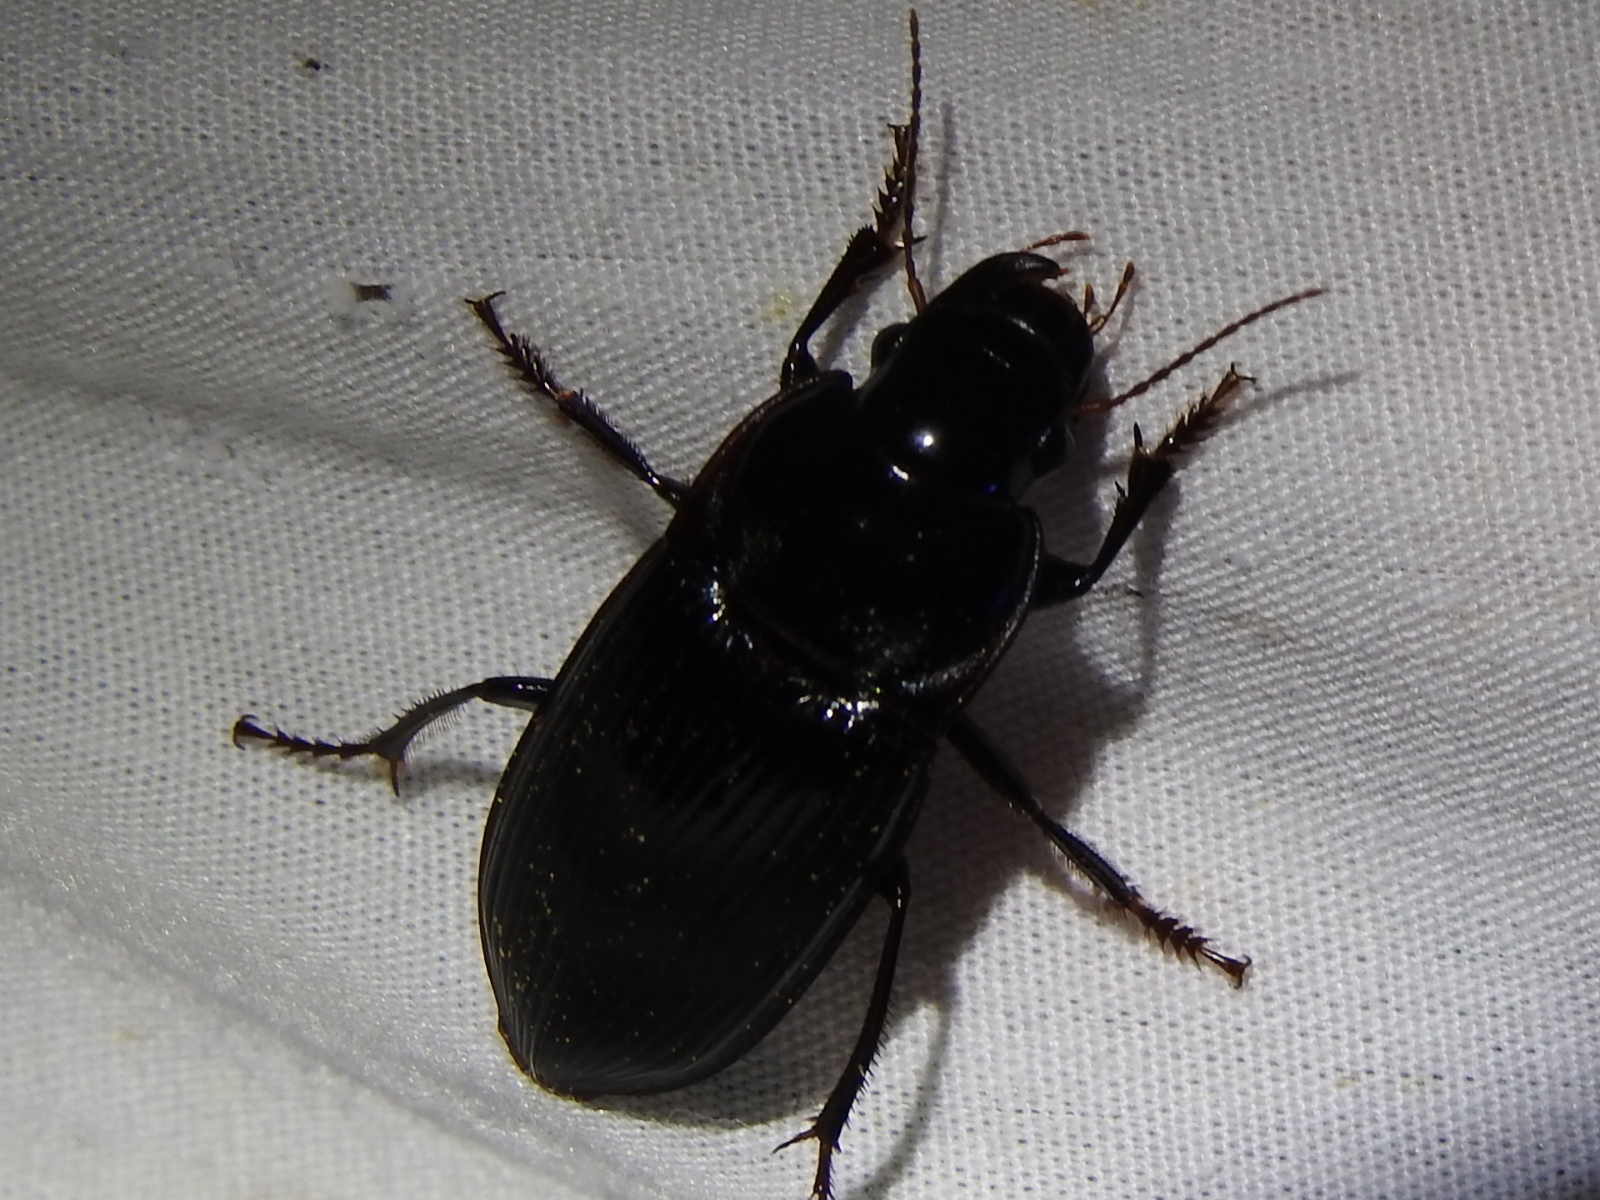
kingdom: Animalia
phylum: Arthropoda
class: Insecta
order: Coleoptera
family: Carabidae
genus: Harpalus
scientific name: Harpalus caliginosus
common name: Murky ground beetle
